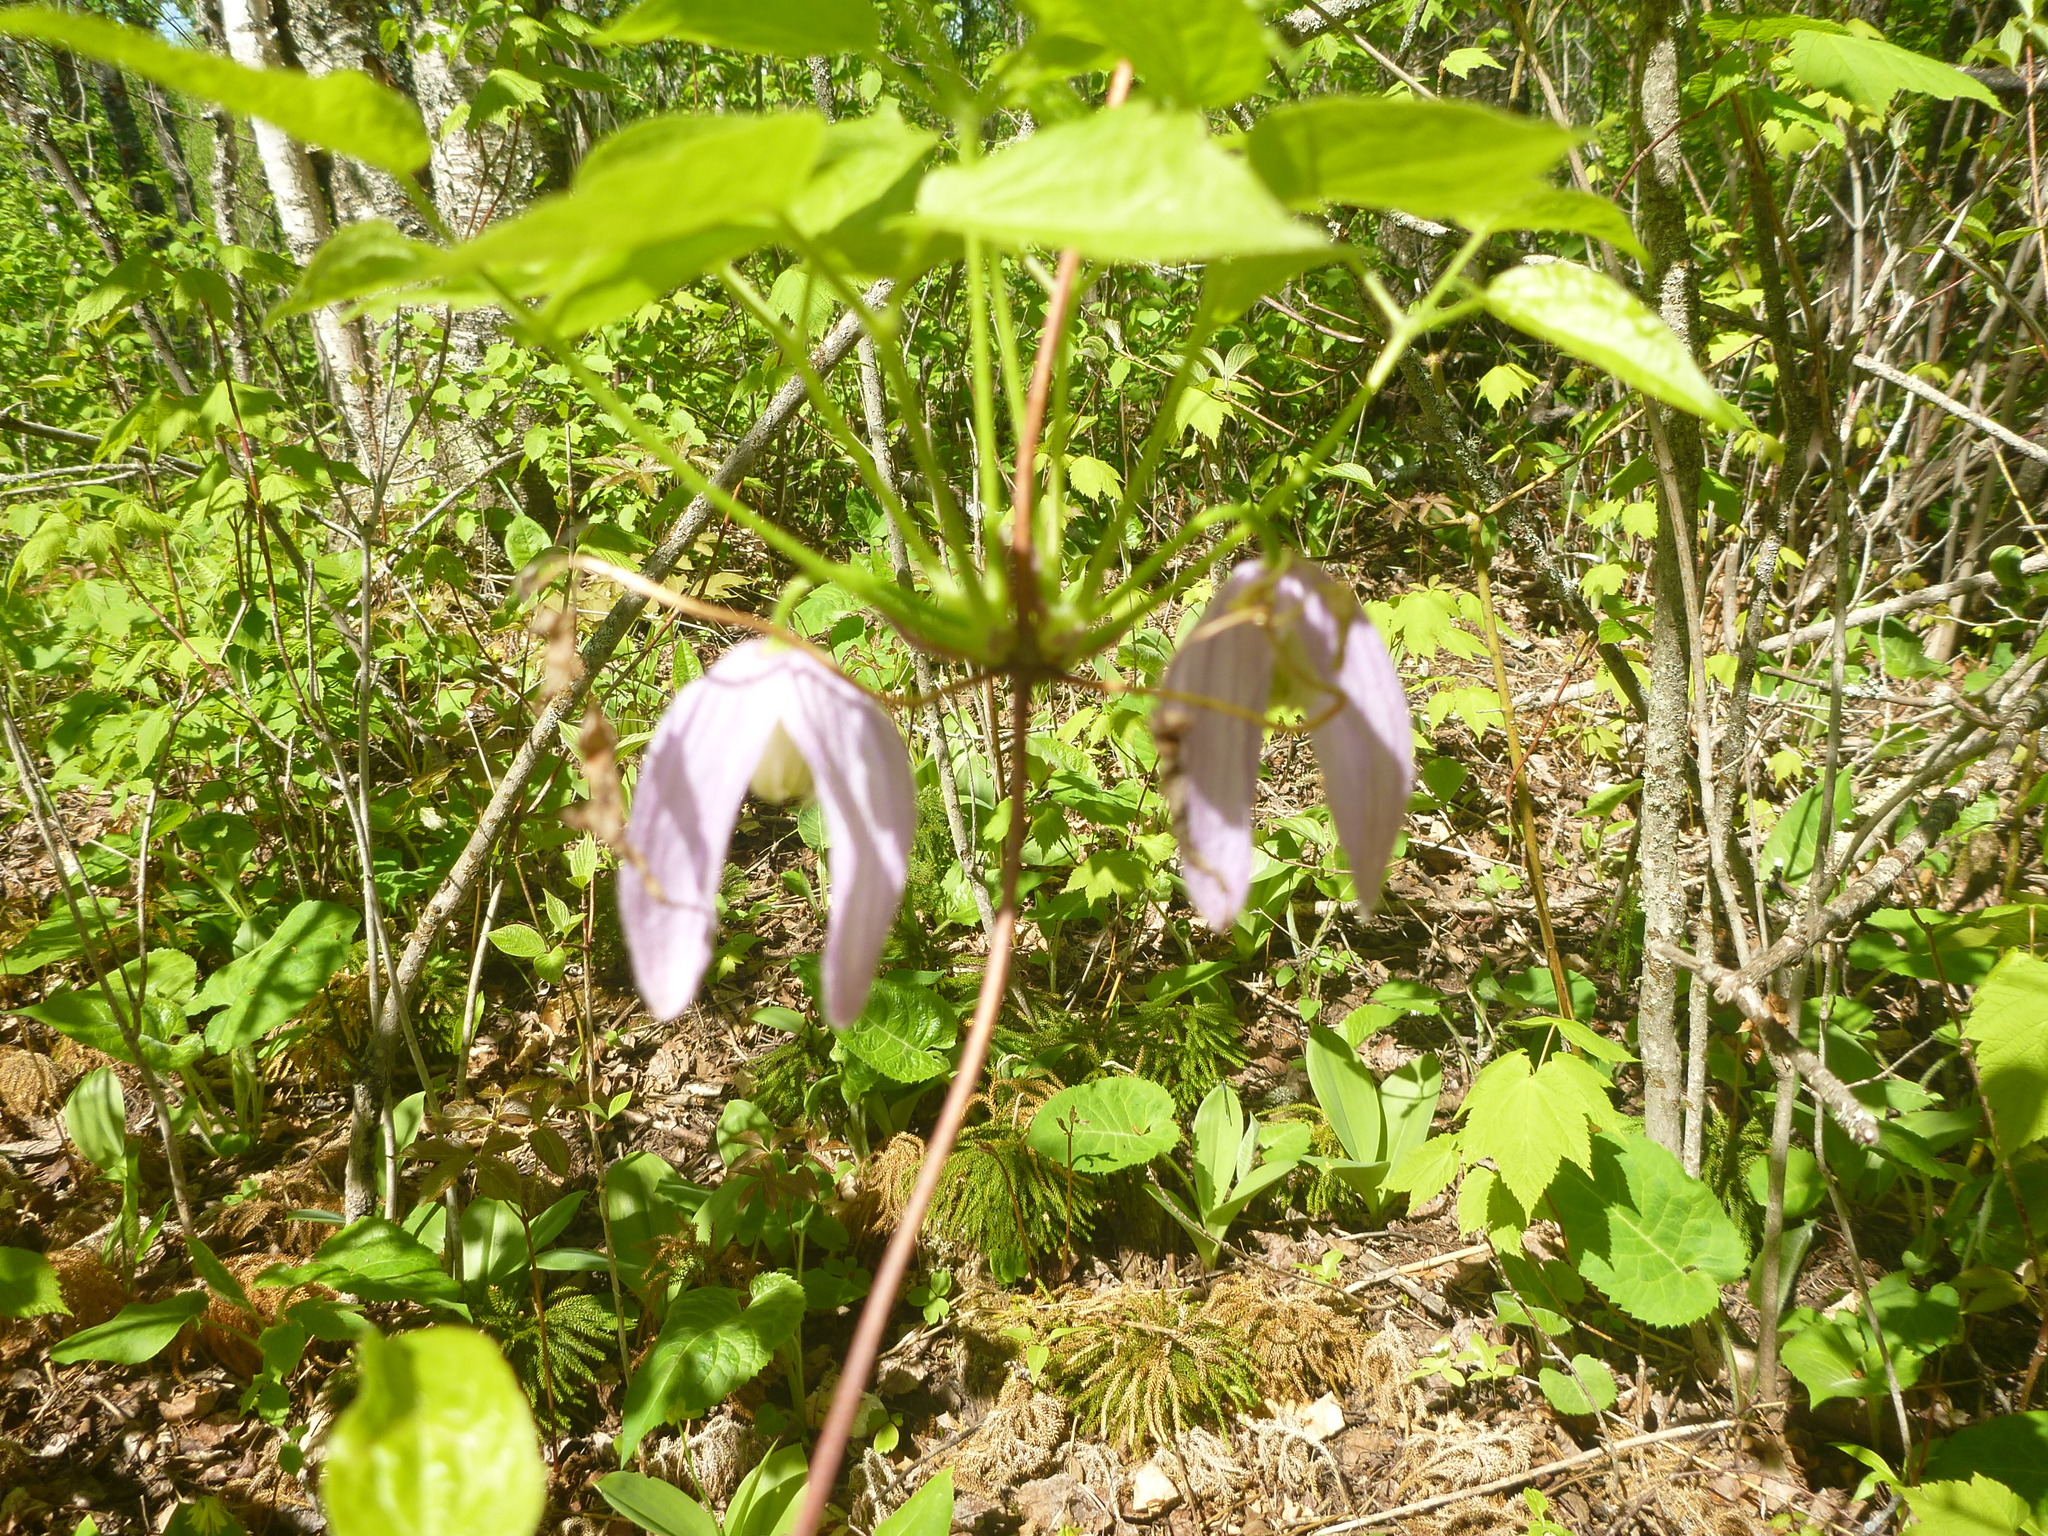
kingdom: Plantae
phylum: Tracheophyta
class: Magnoliopsida
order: Ranunculales
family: Ranunculaceae
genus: Clematis
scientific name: Clematis occidentalis
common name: Purple clematis
